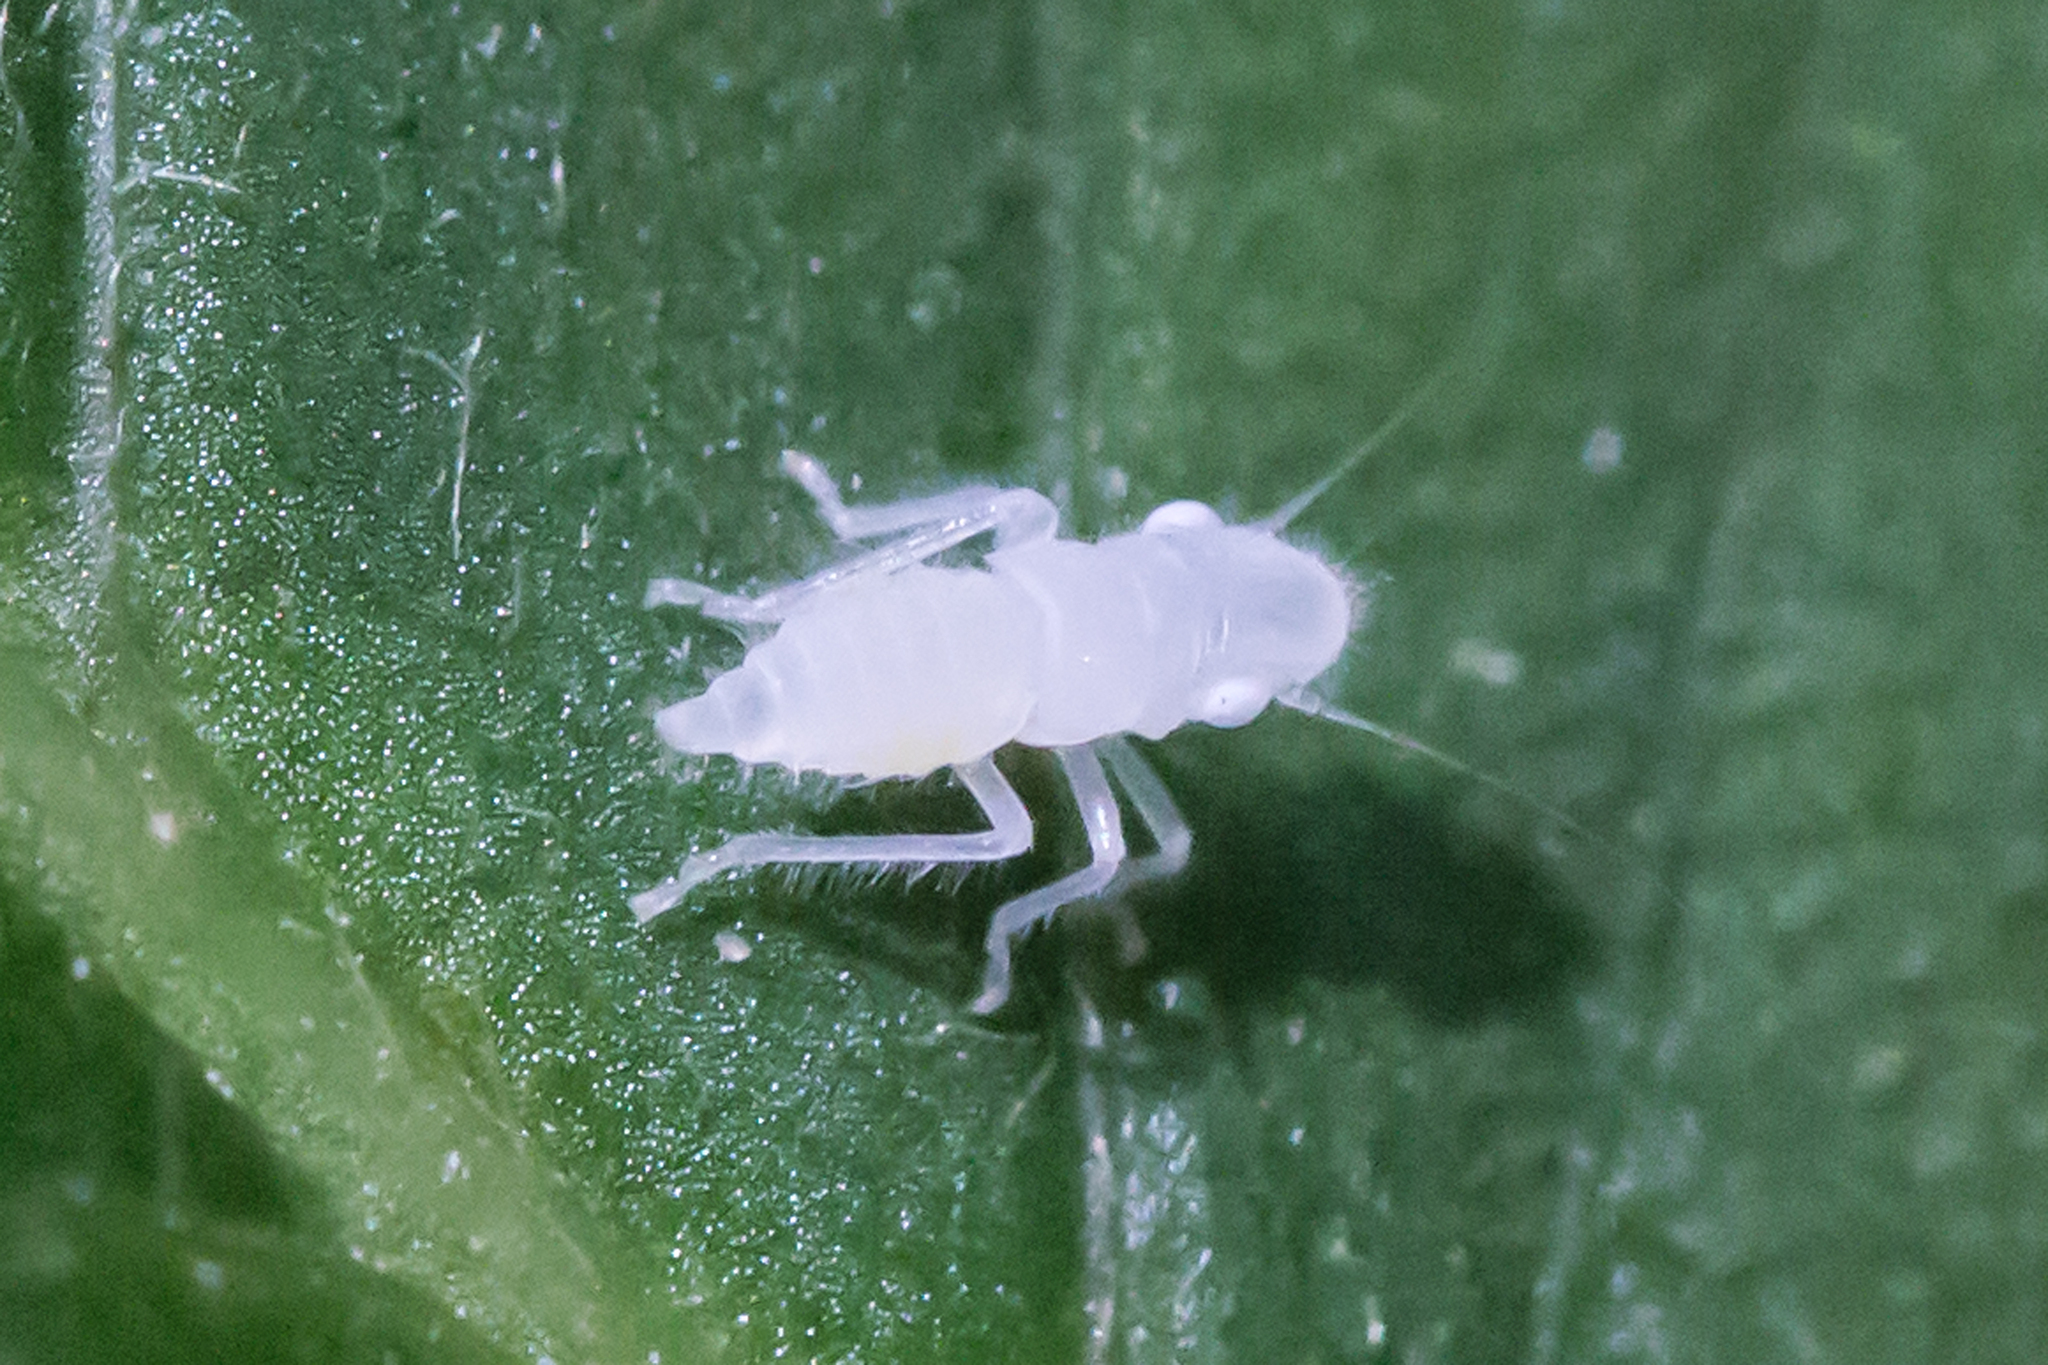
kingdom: Animalia
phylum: Arthropoda
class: Insecta
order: Hemiptera
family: Cicadellidae
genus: Paraulacizes
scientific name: Paraulacizes irrorata
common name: Speckled sharpshooter
